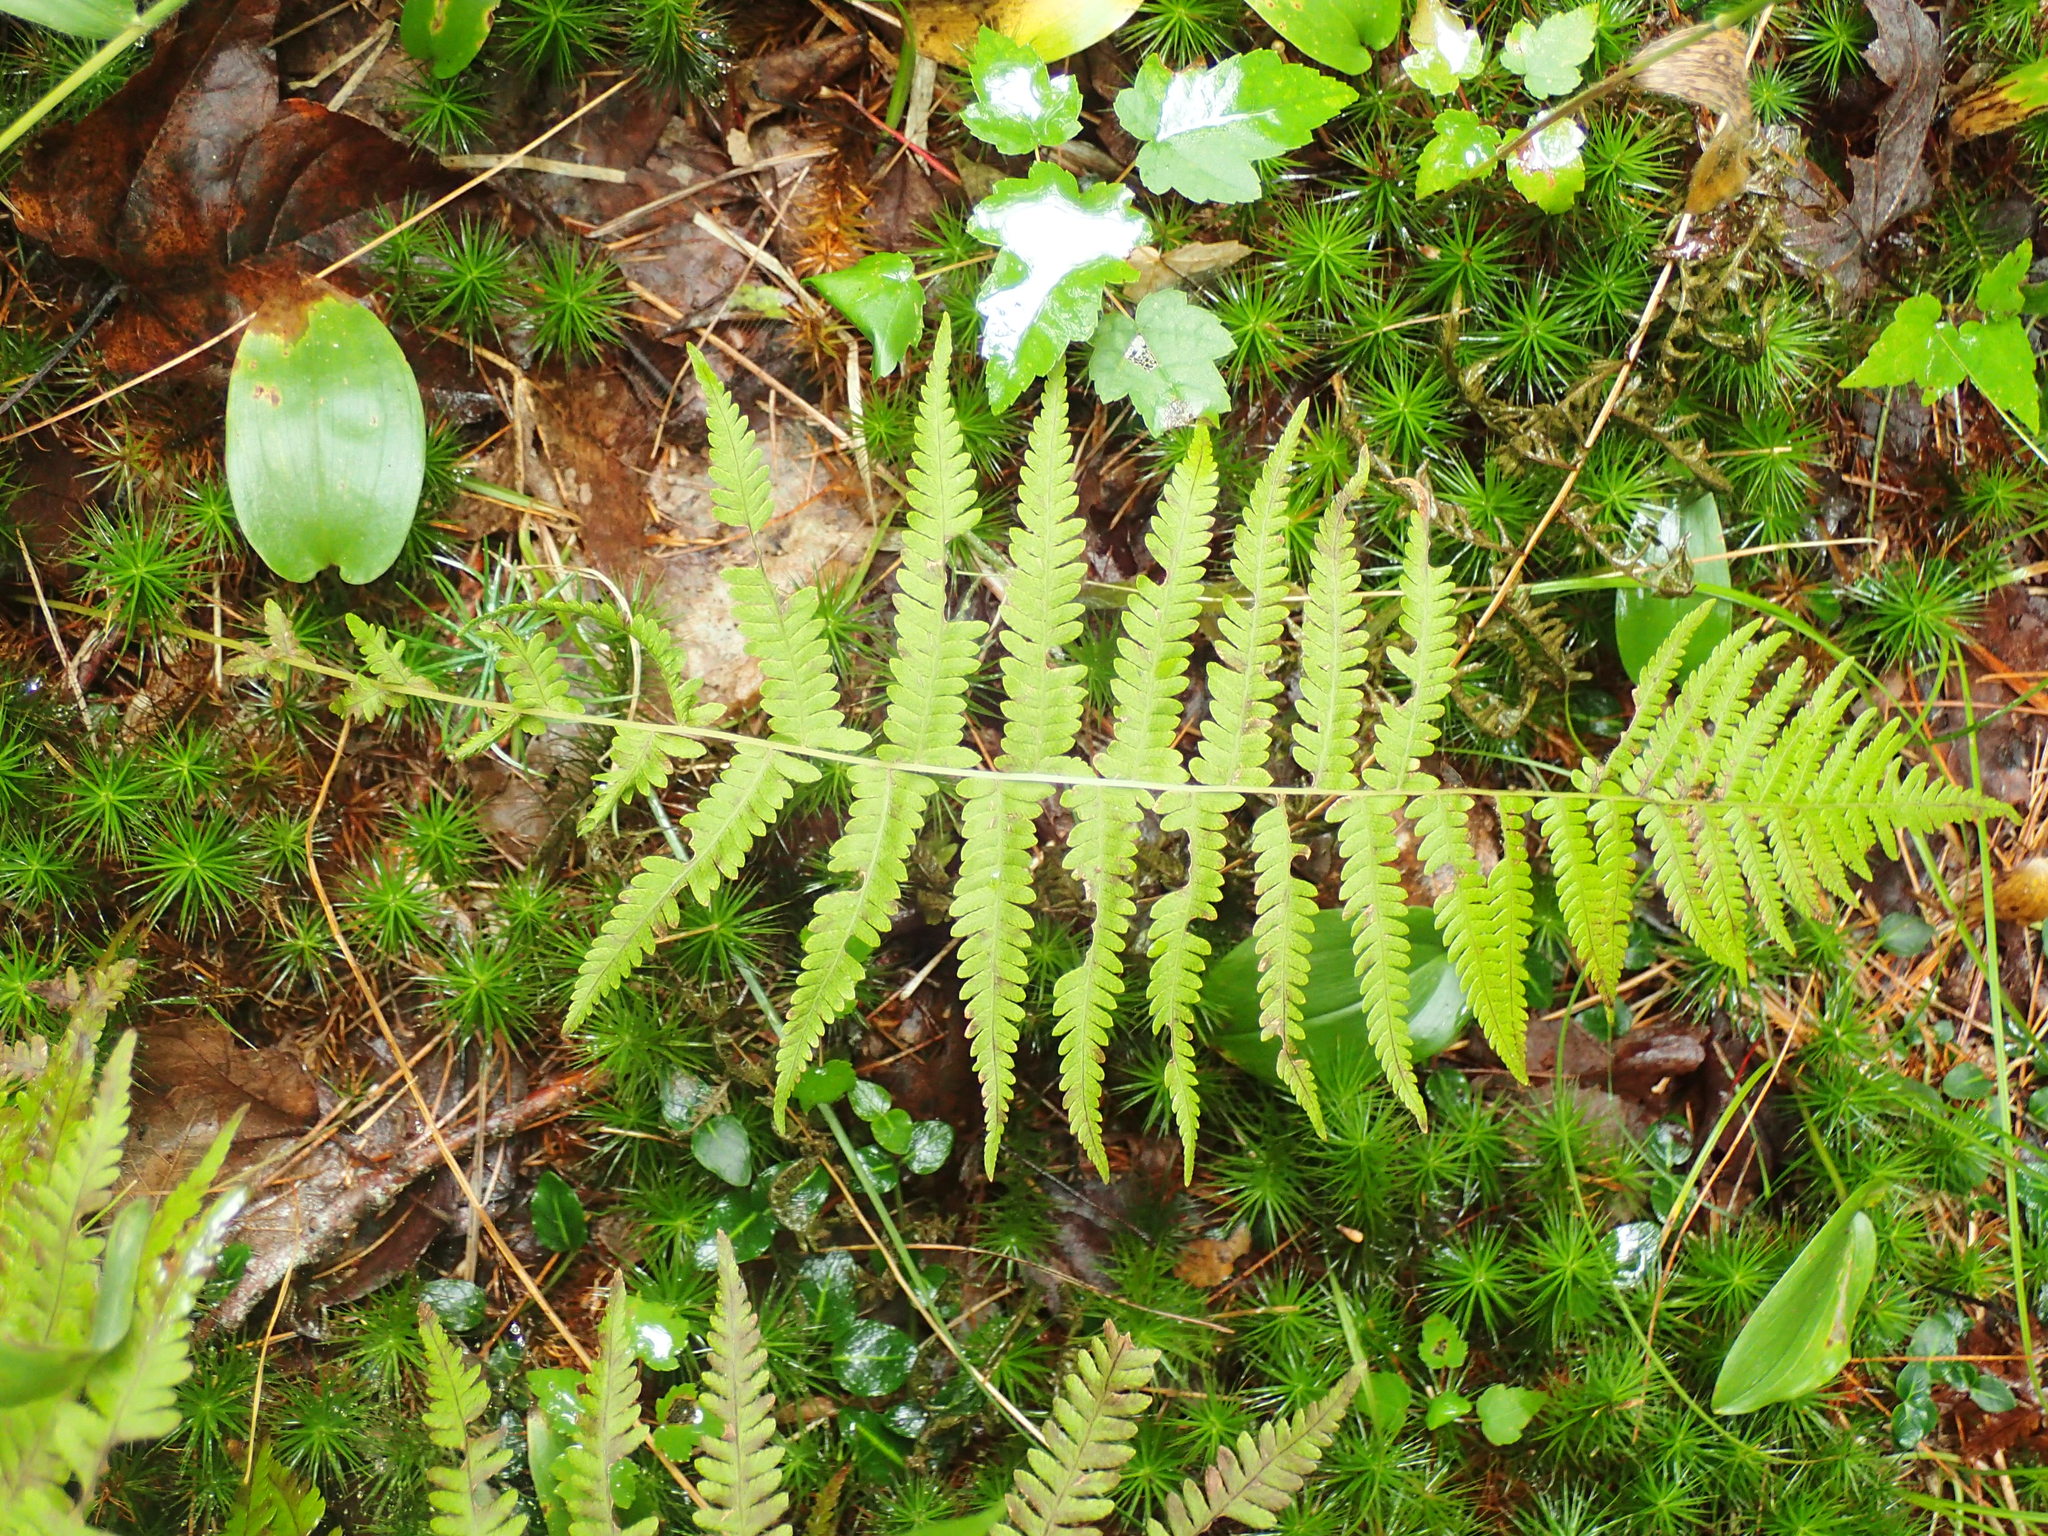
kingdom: Plantae
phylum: Tracheophyta
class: Polypodiopsida
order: Polypodiales
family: Thelypteridaceae
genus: Amauropelta
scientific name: Amauropelta noveboracensis
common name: New york fern
